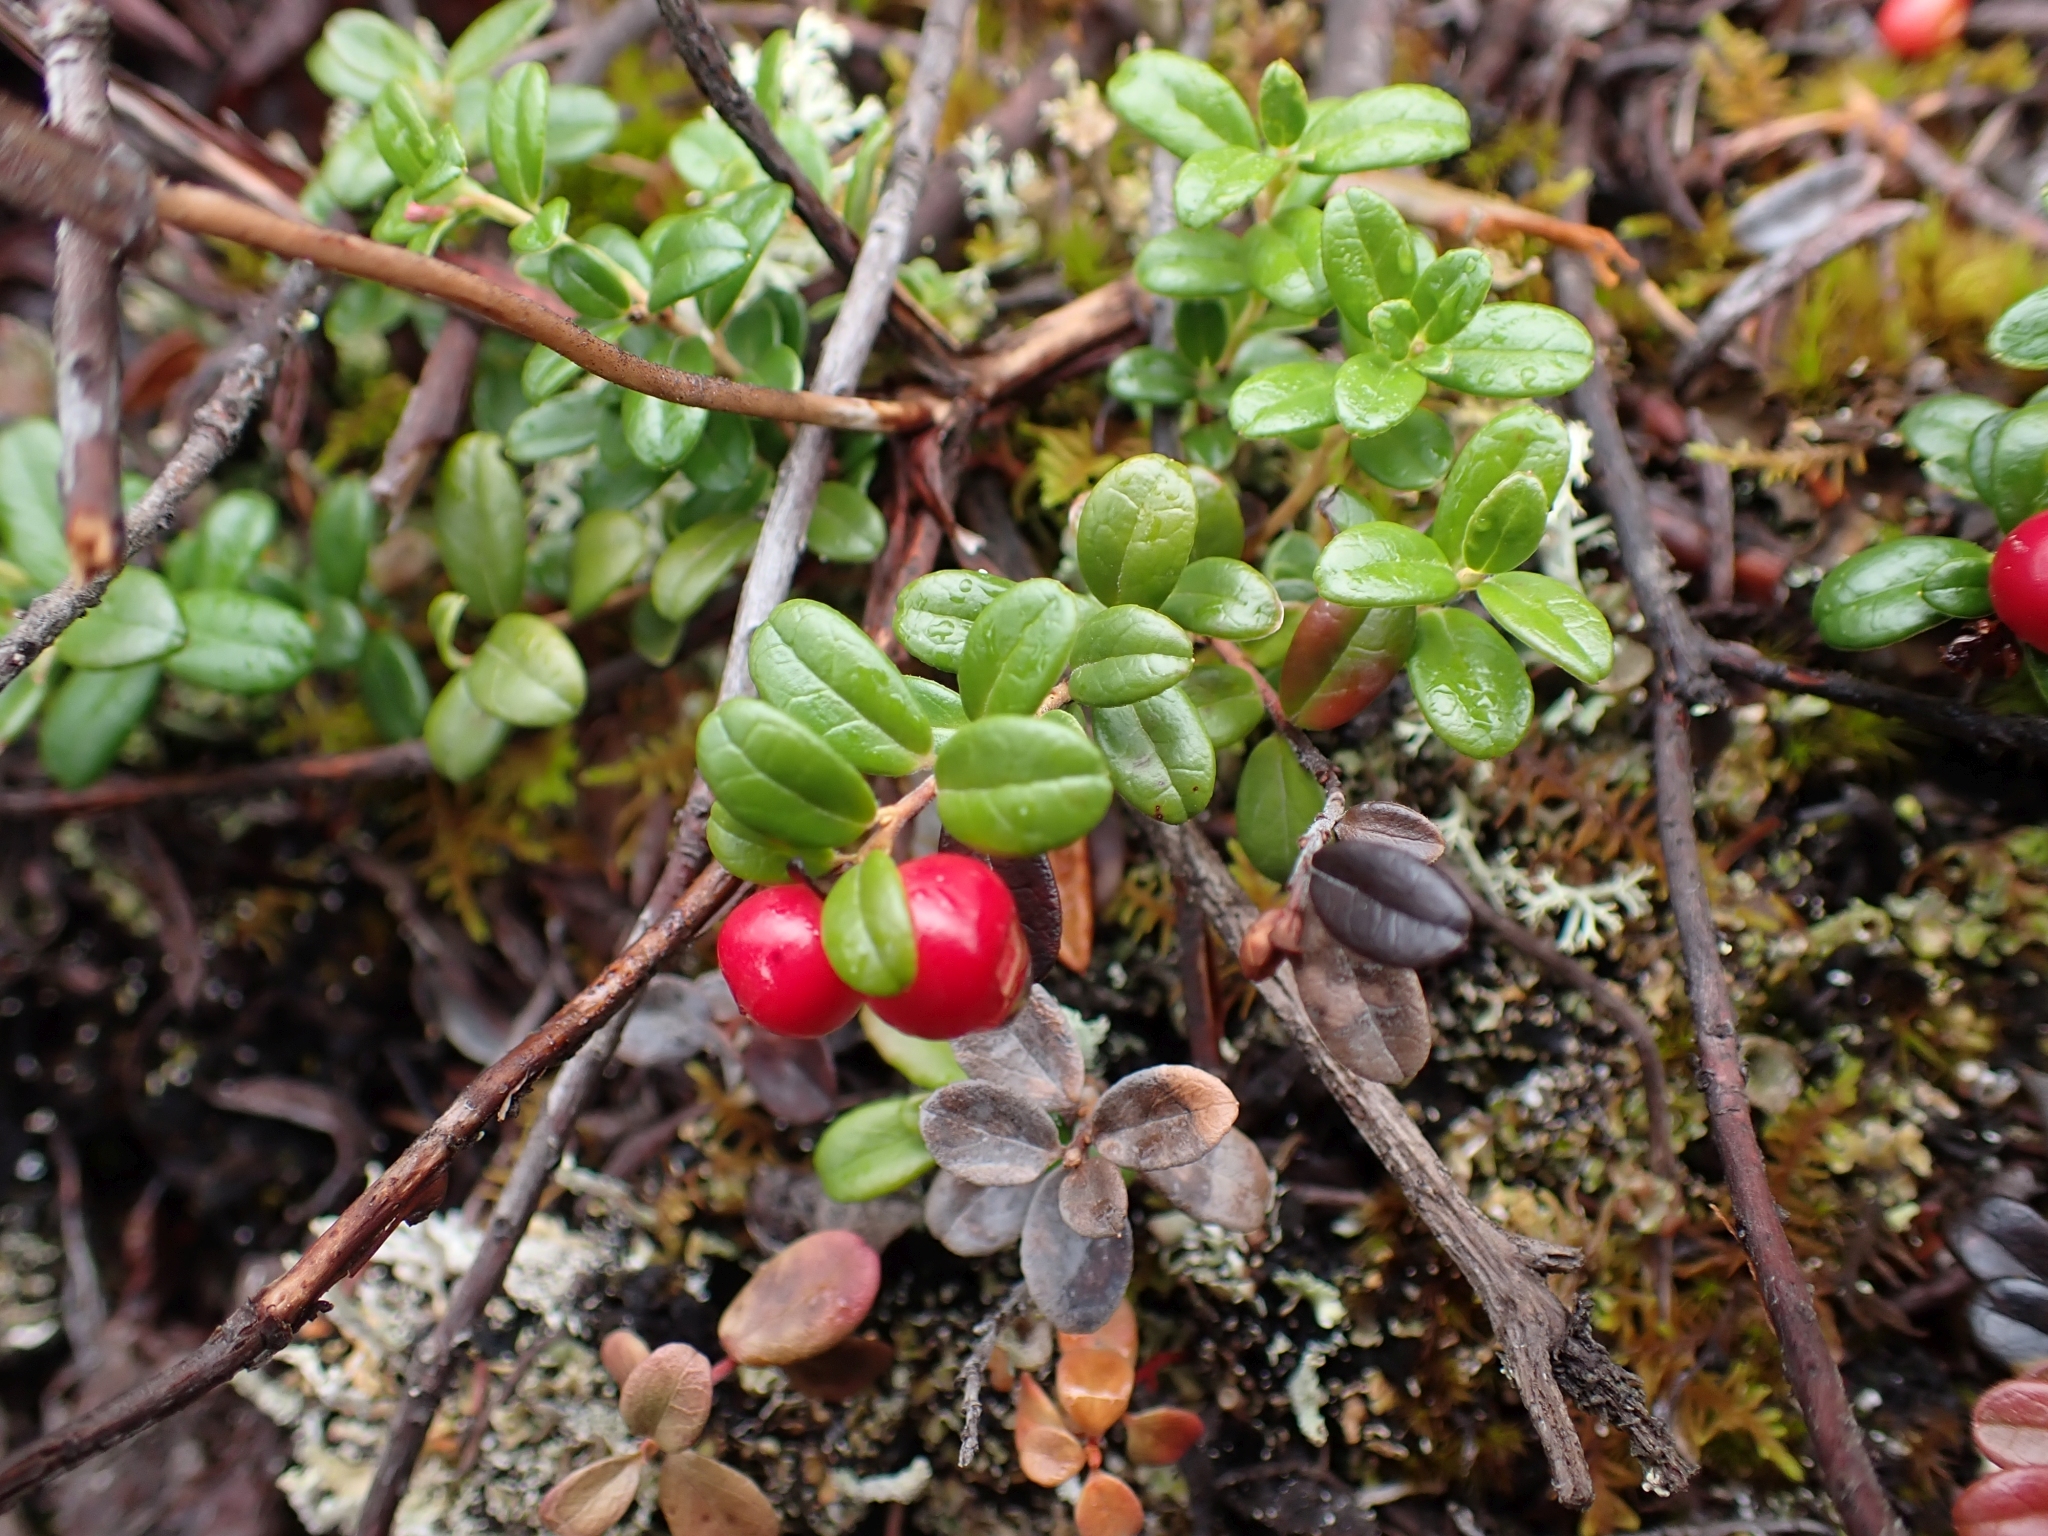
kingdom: Plantae
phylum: Tracheophyta
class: Magnoliopsida
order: Ericales
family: Ericaceae
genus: Vaccinium
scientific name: Vaccinium vitis-idaea
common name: Cowberry
